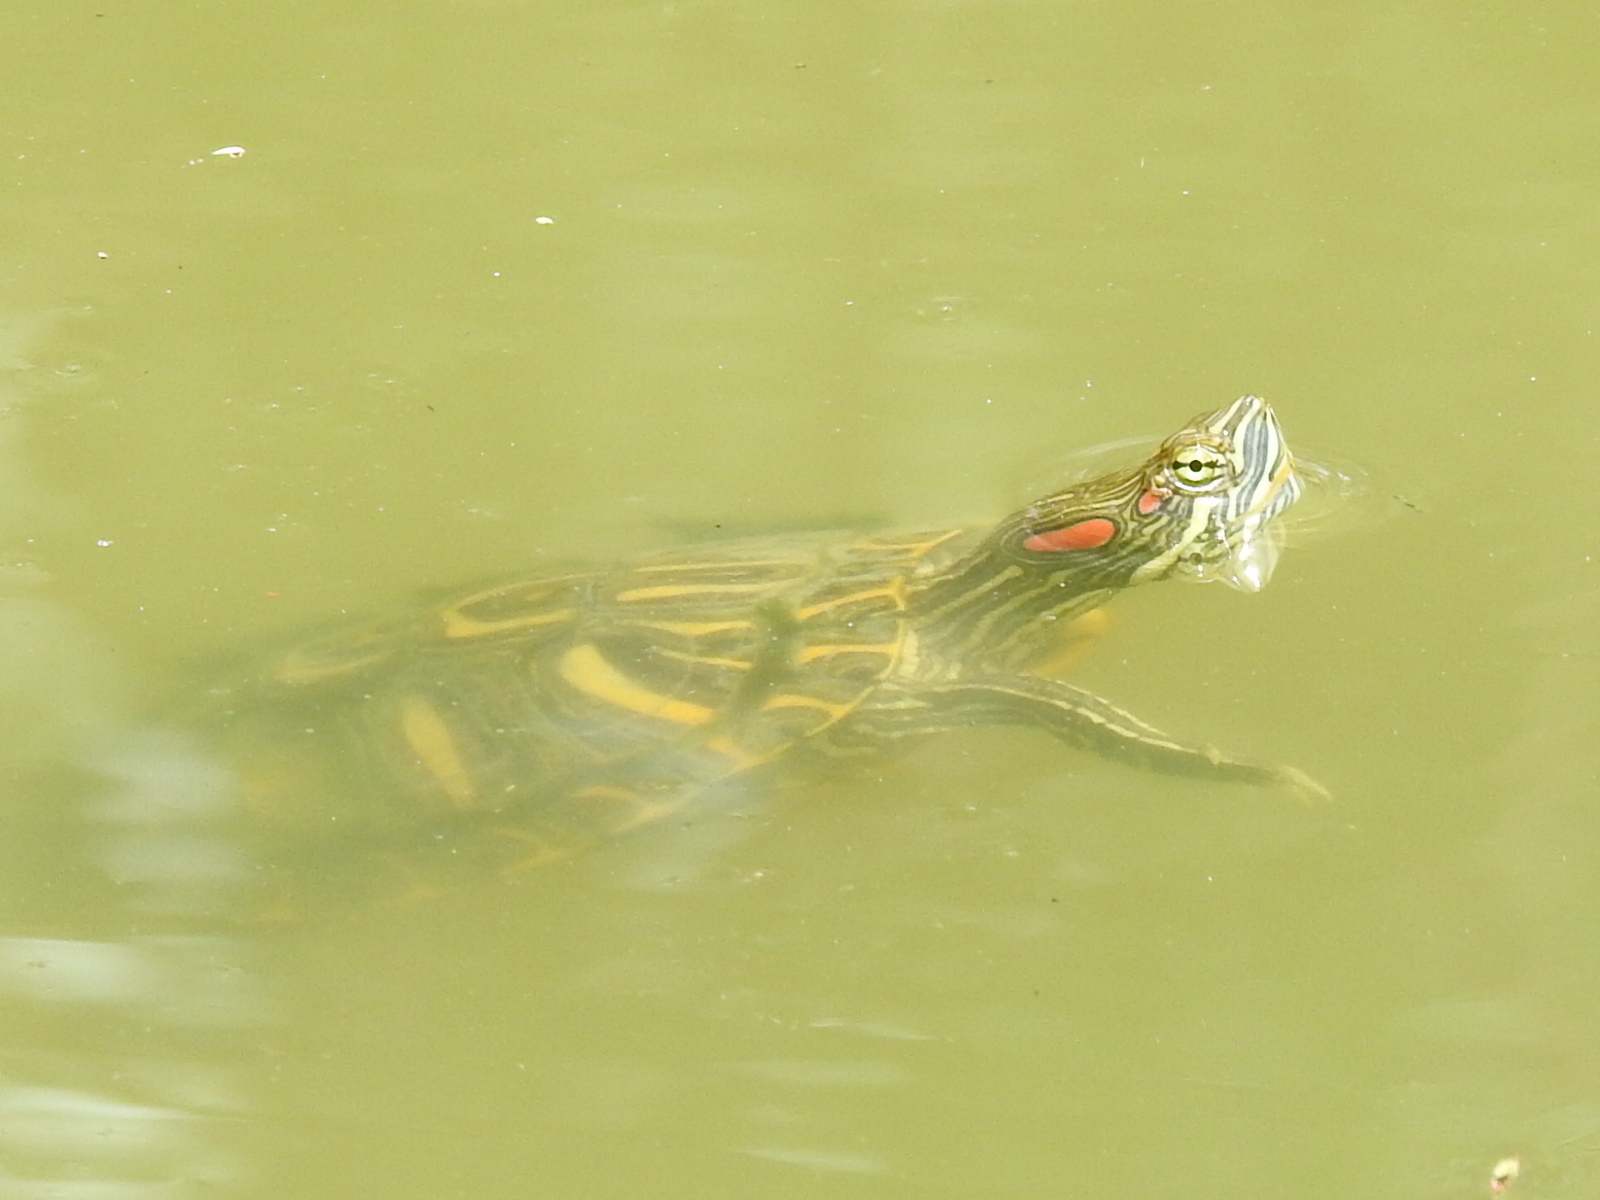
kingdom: Animalia
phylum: Chordata
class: Testudines
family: Emydidae
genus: Trachemys
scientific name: Trachemys scripta
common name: Slider
